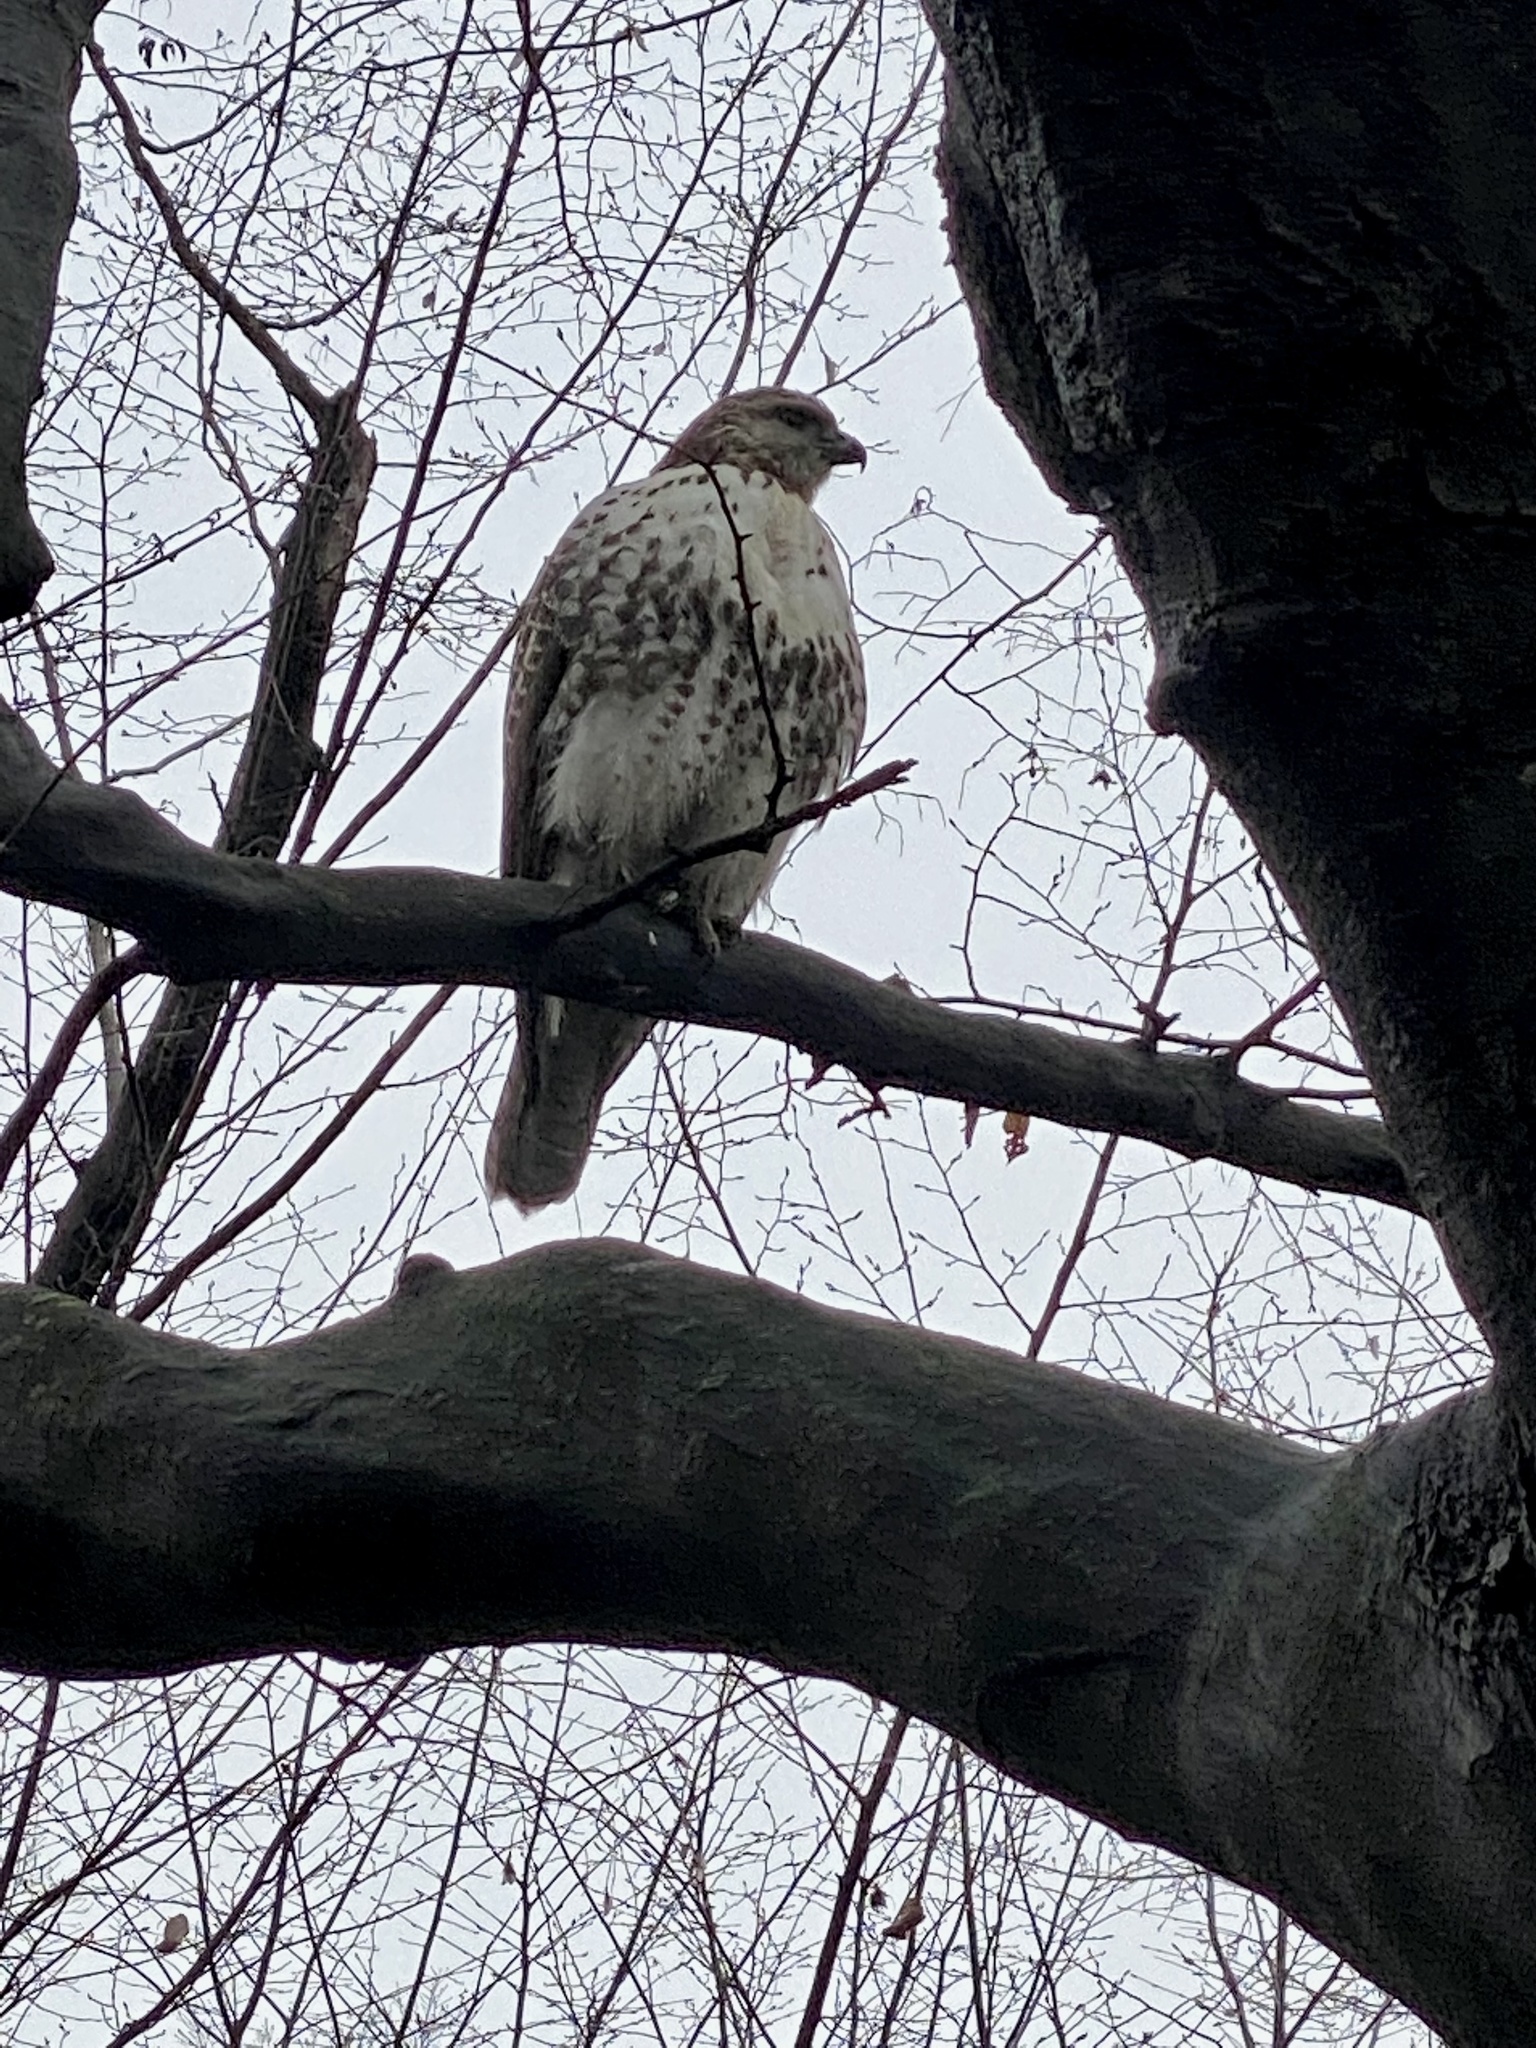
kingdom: Animalia
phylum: Chordata
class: Aves
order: Accipitriformes
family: Accipitridae
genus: Buteo
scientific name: Buteo jamaicensis
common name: Red-tailed hawk
